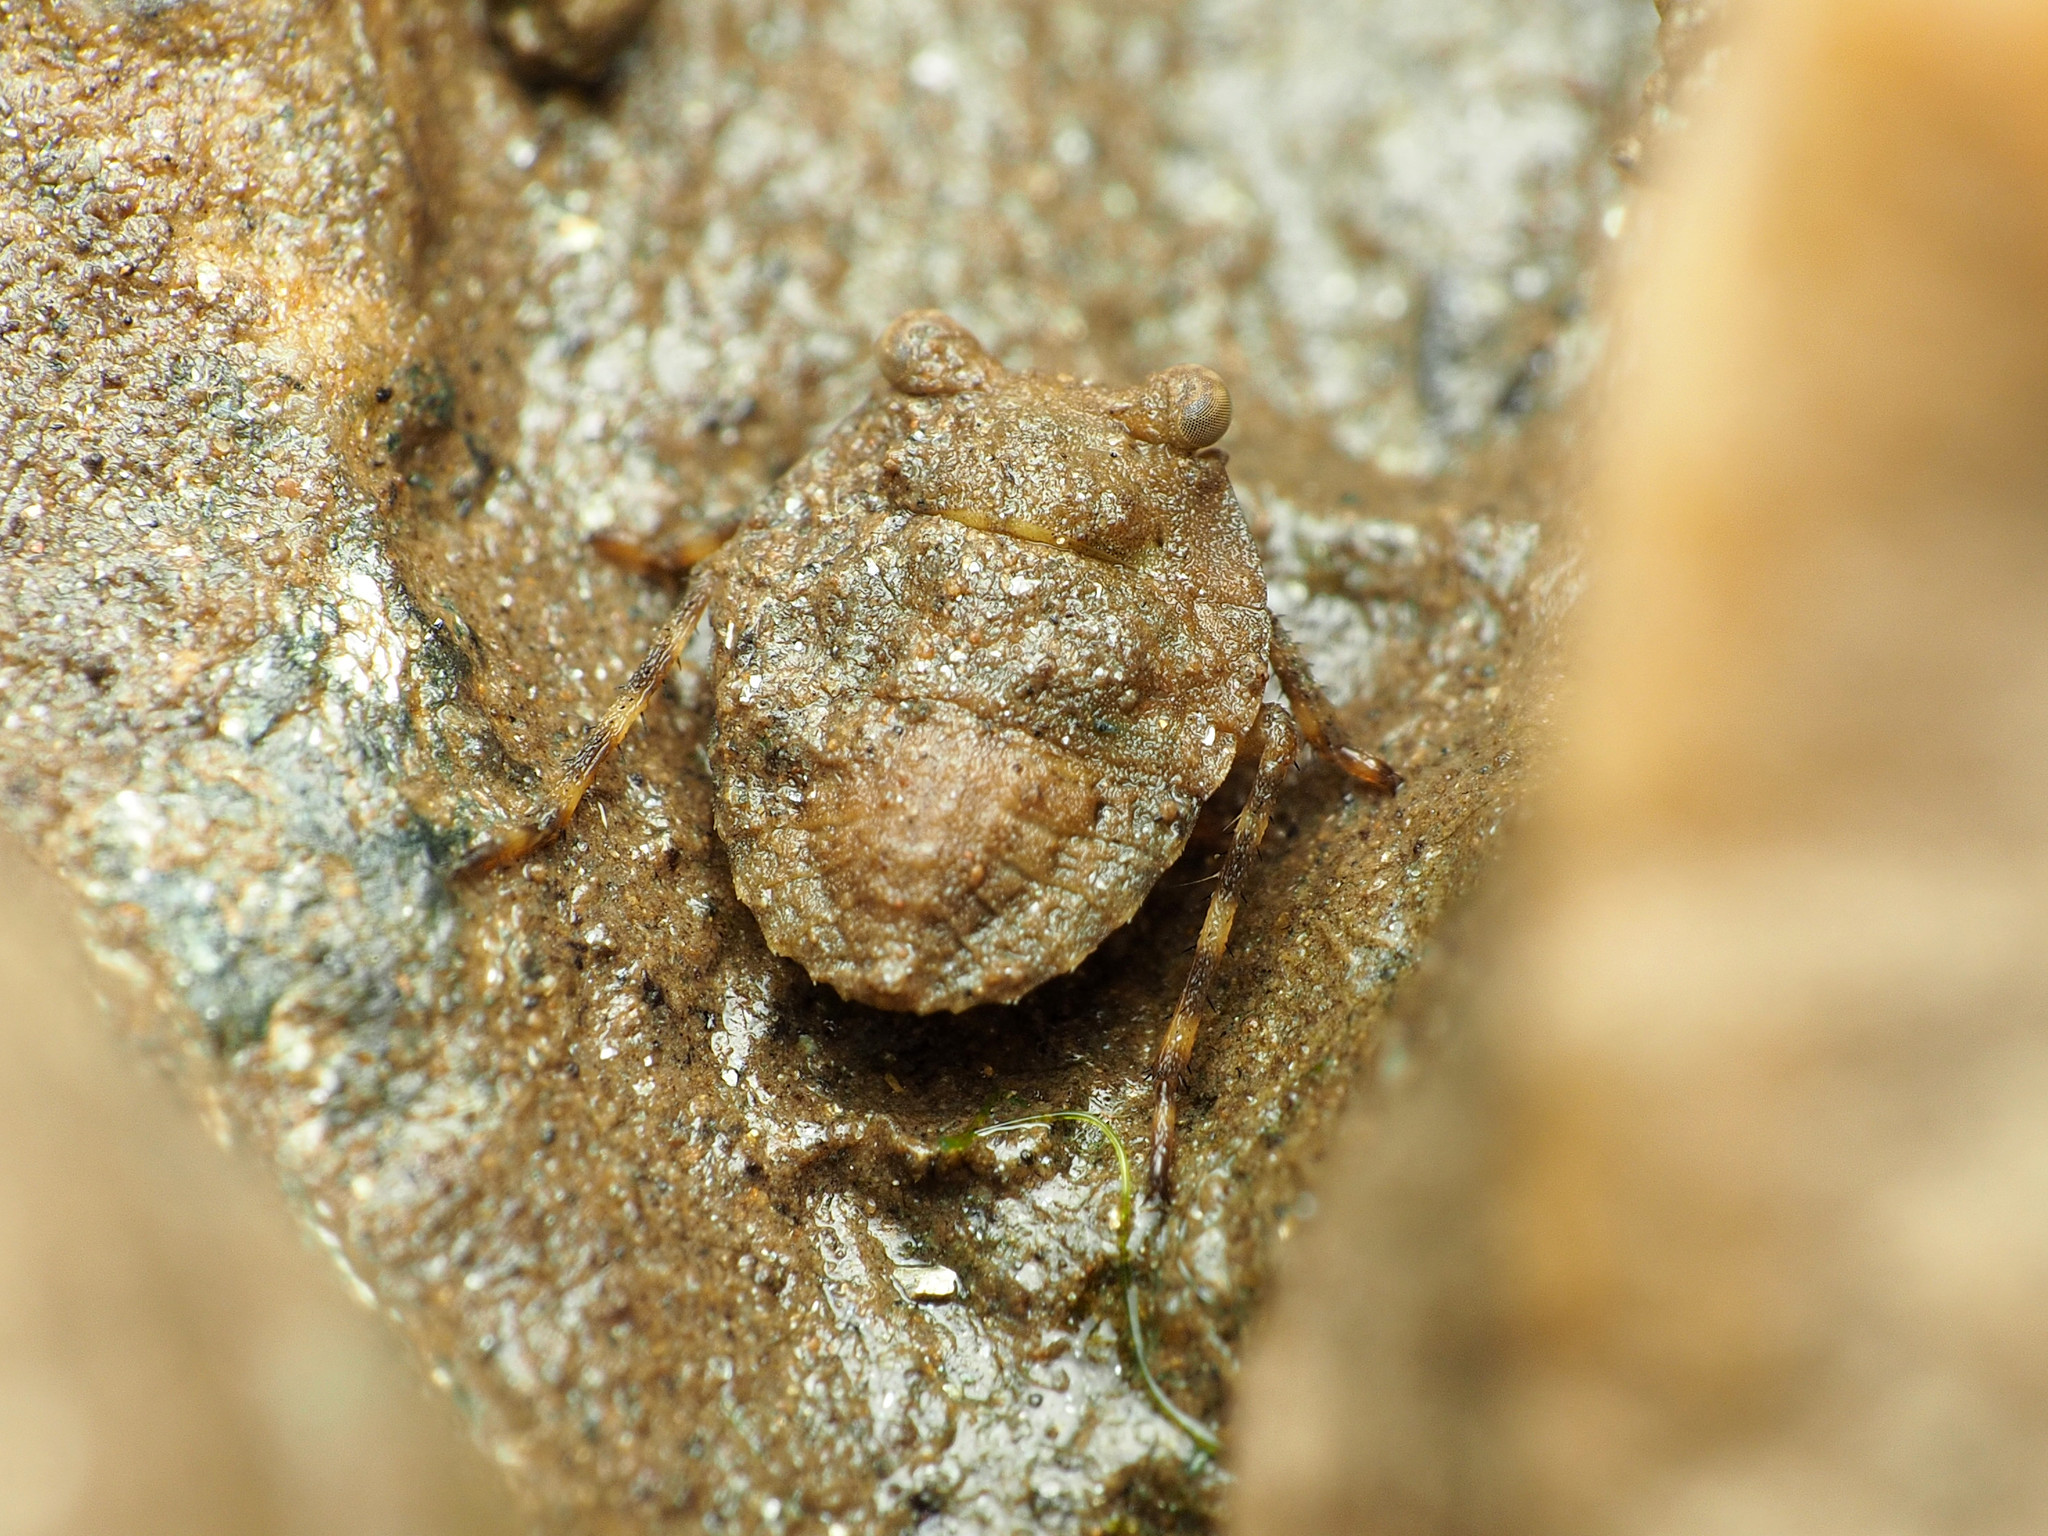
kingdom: Animalia
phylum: Arthropoda
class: Insecta
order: Hemiptera
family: Gelastocoridae
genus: Gelastocoris
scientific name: Gelastocoris oculatus
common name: Toad bug
